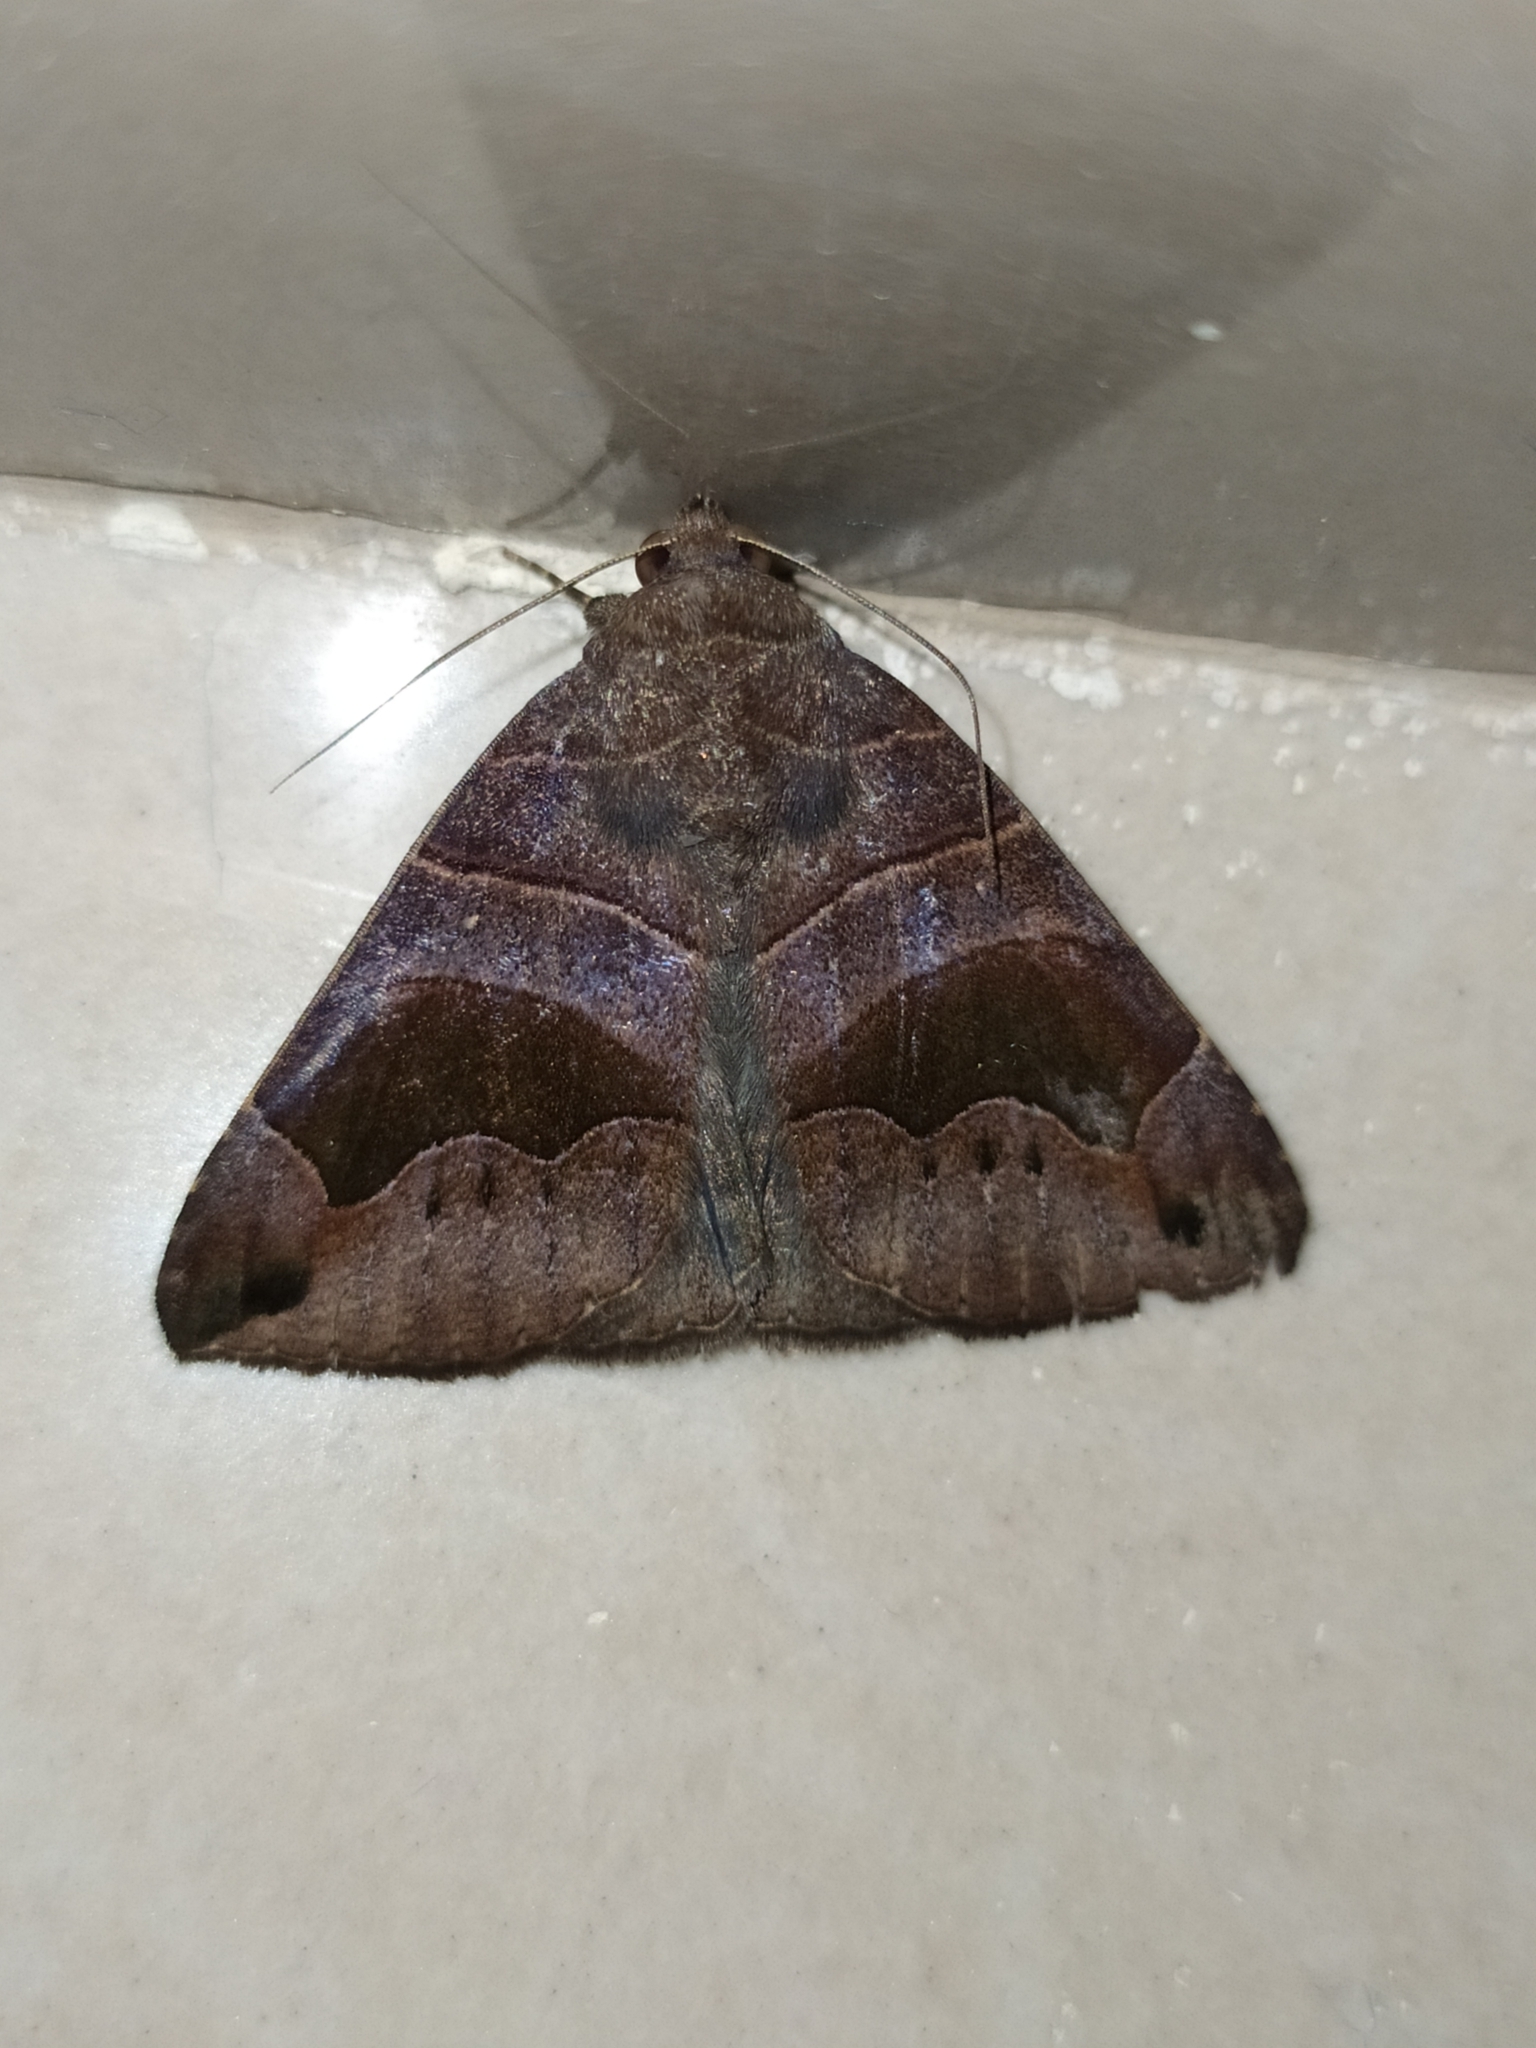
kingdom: Animalia
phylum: Arthropoda
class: Insecta
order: Lepidoptera
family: Erebidae
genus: Bastilla
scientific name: Bastilla joviana
